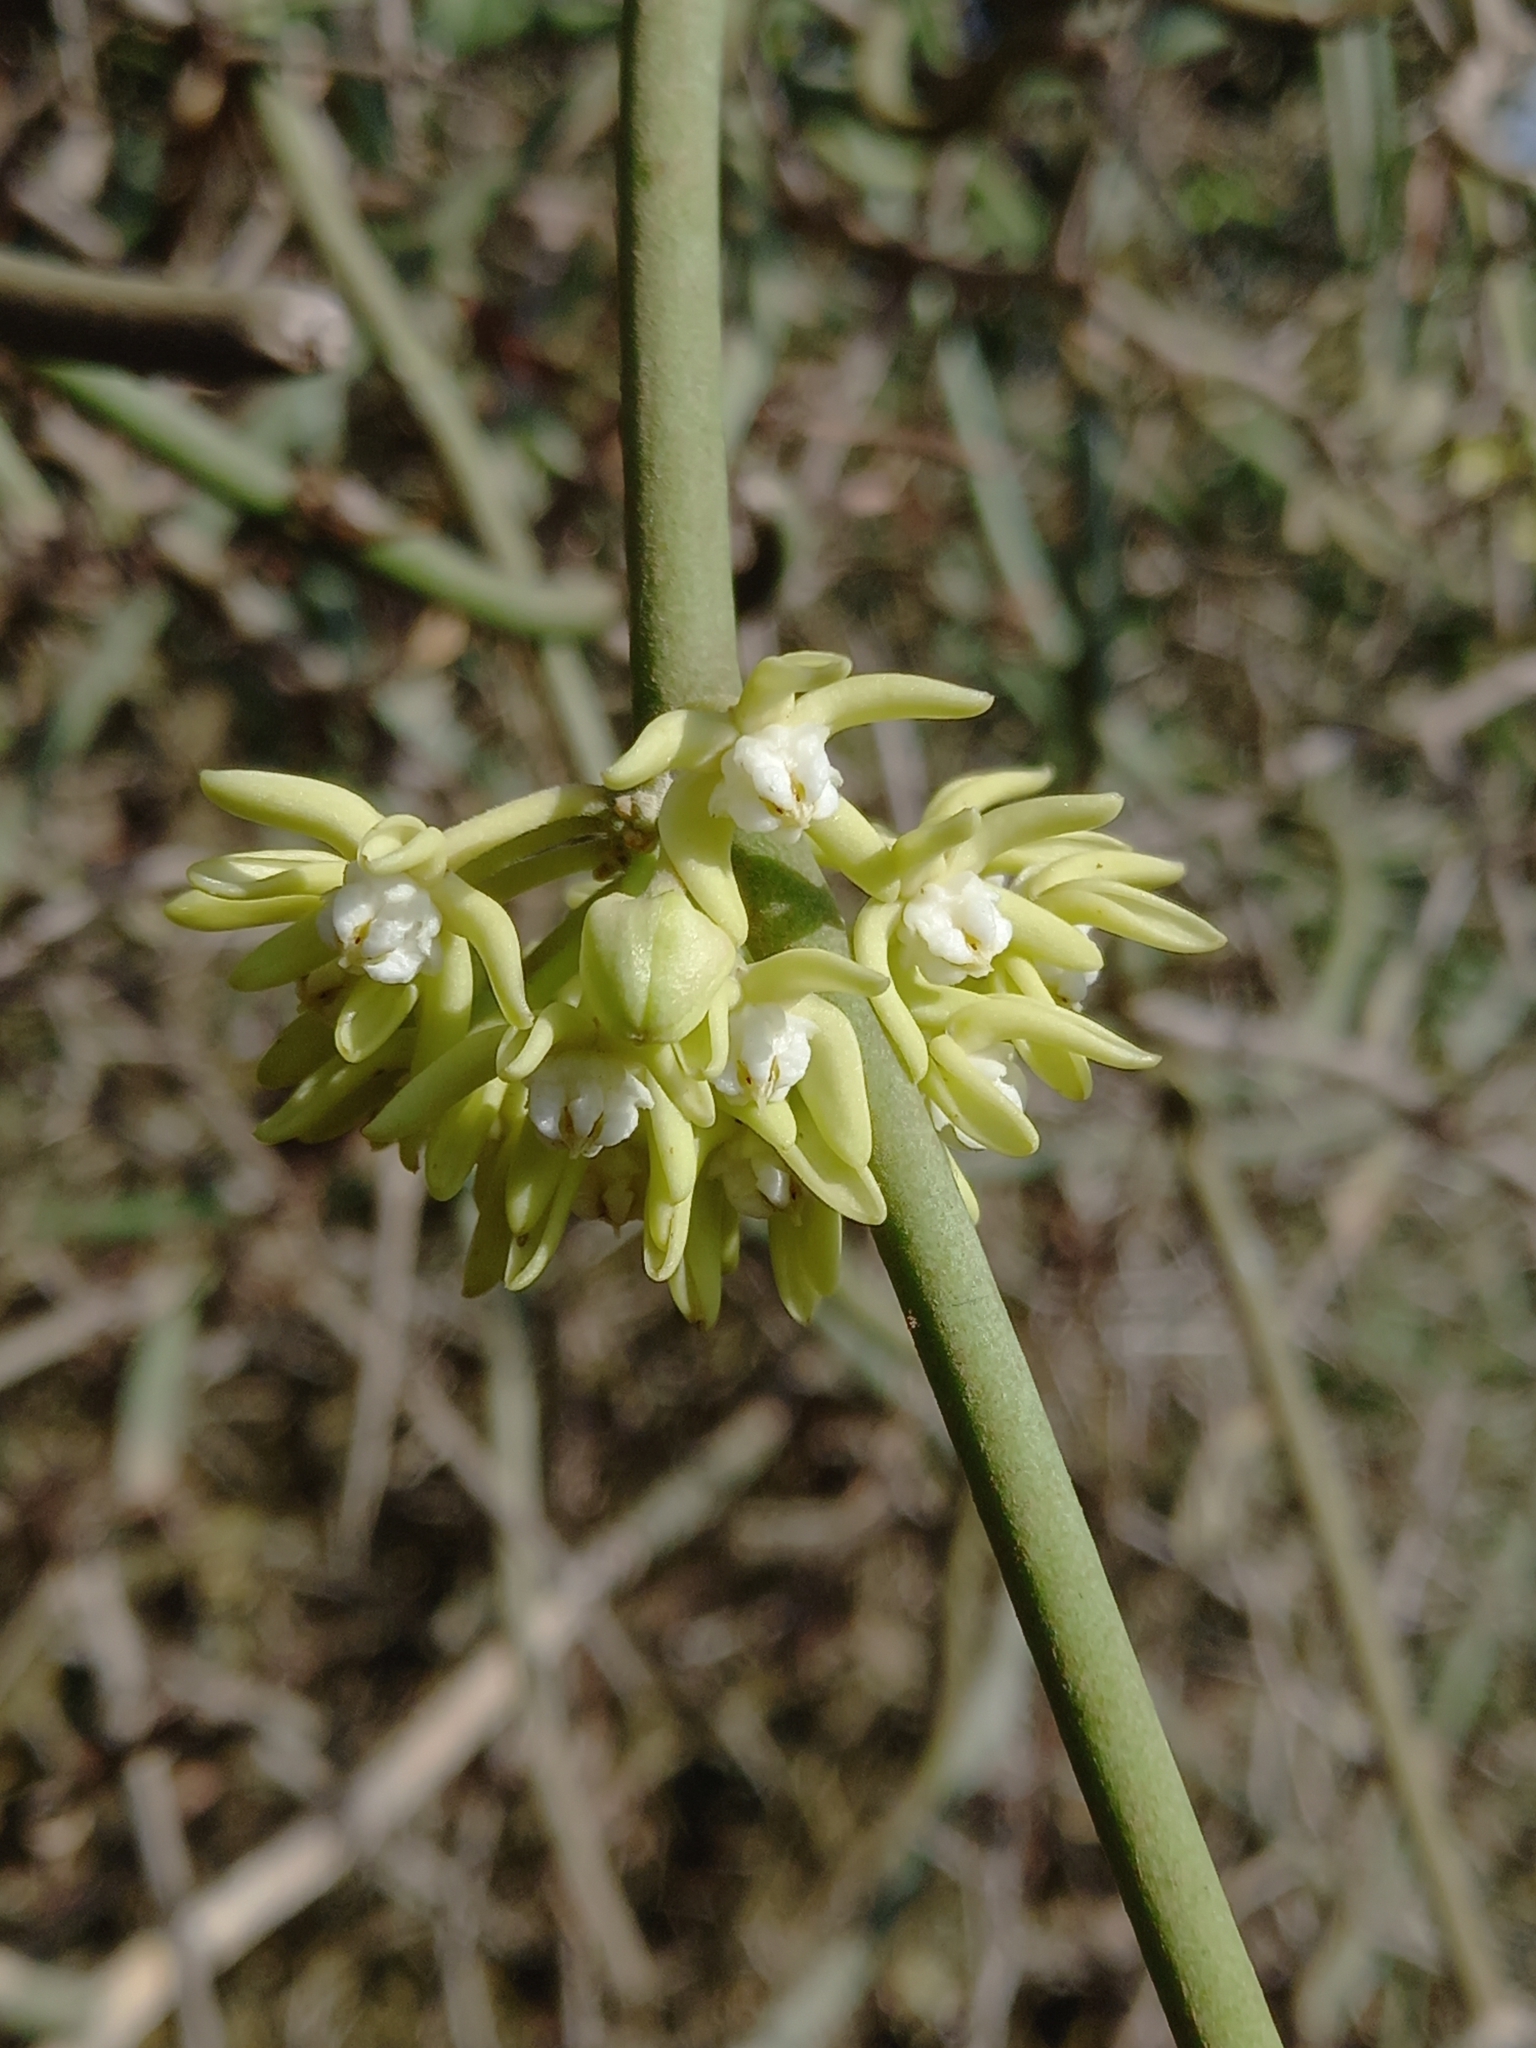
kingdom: Plantae
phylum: Tracheophyta
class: Magnoliopsida
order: Gentianales
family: Apocynaceae
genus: Cynanchum
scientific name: Cynanchum viminale
